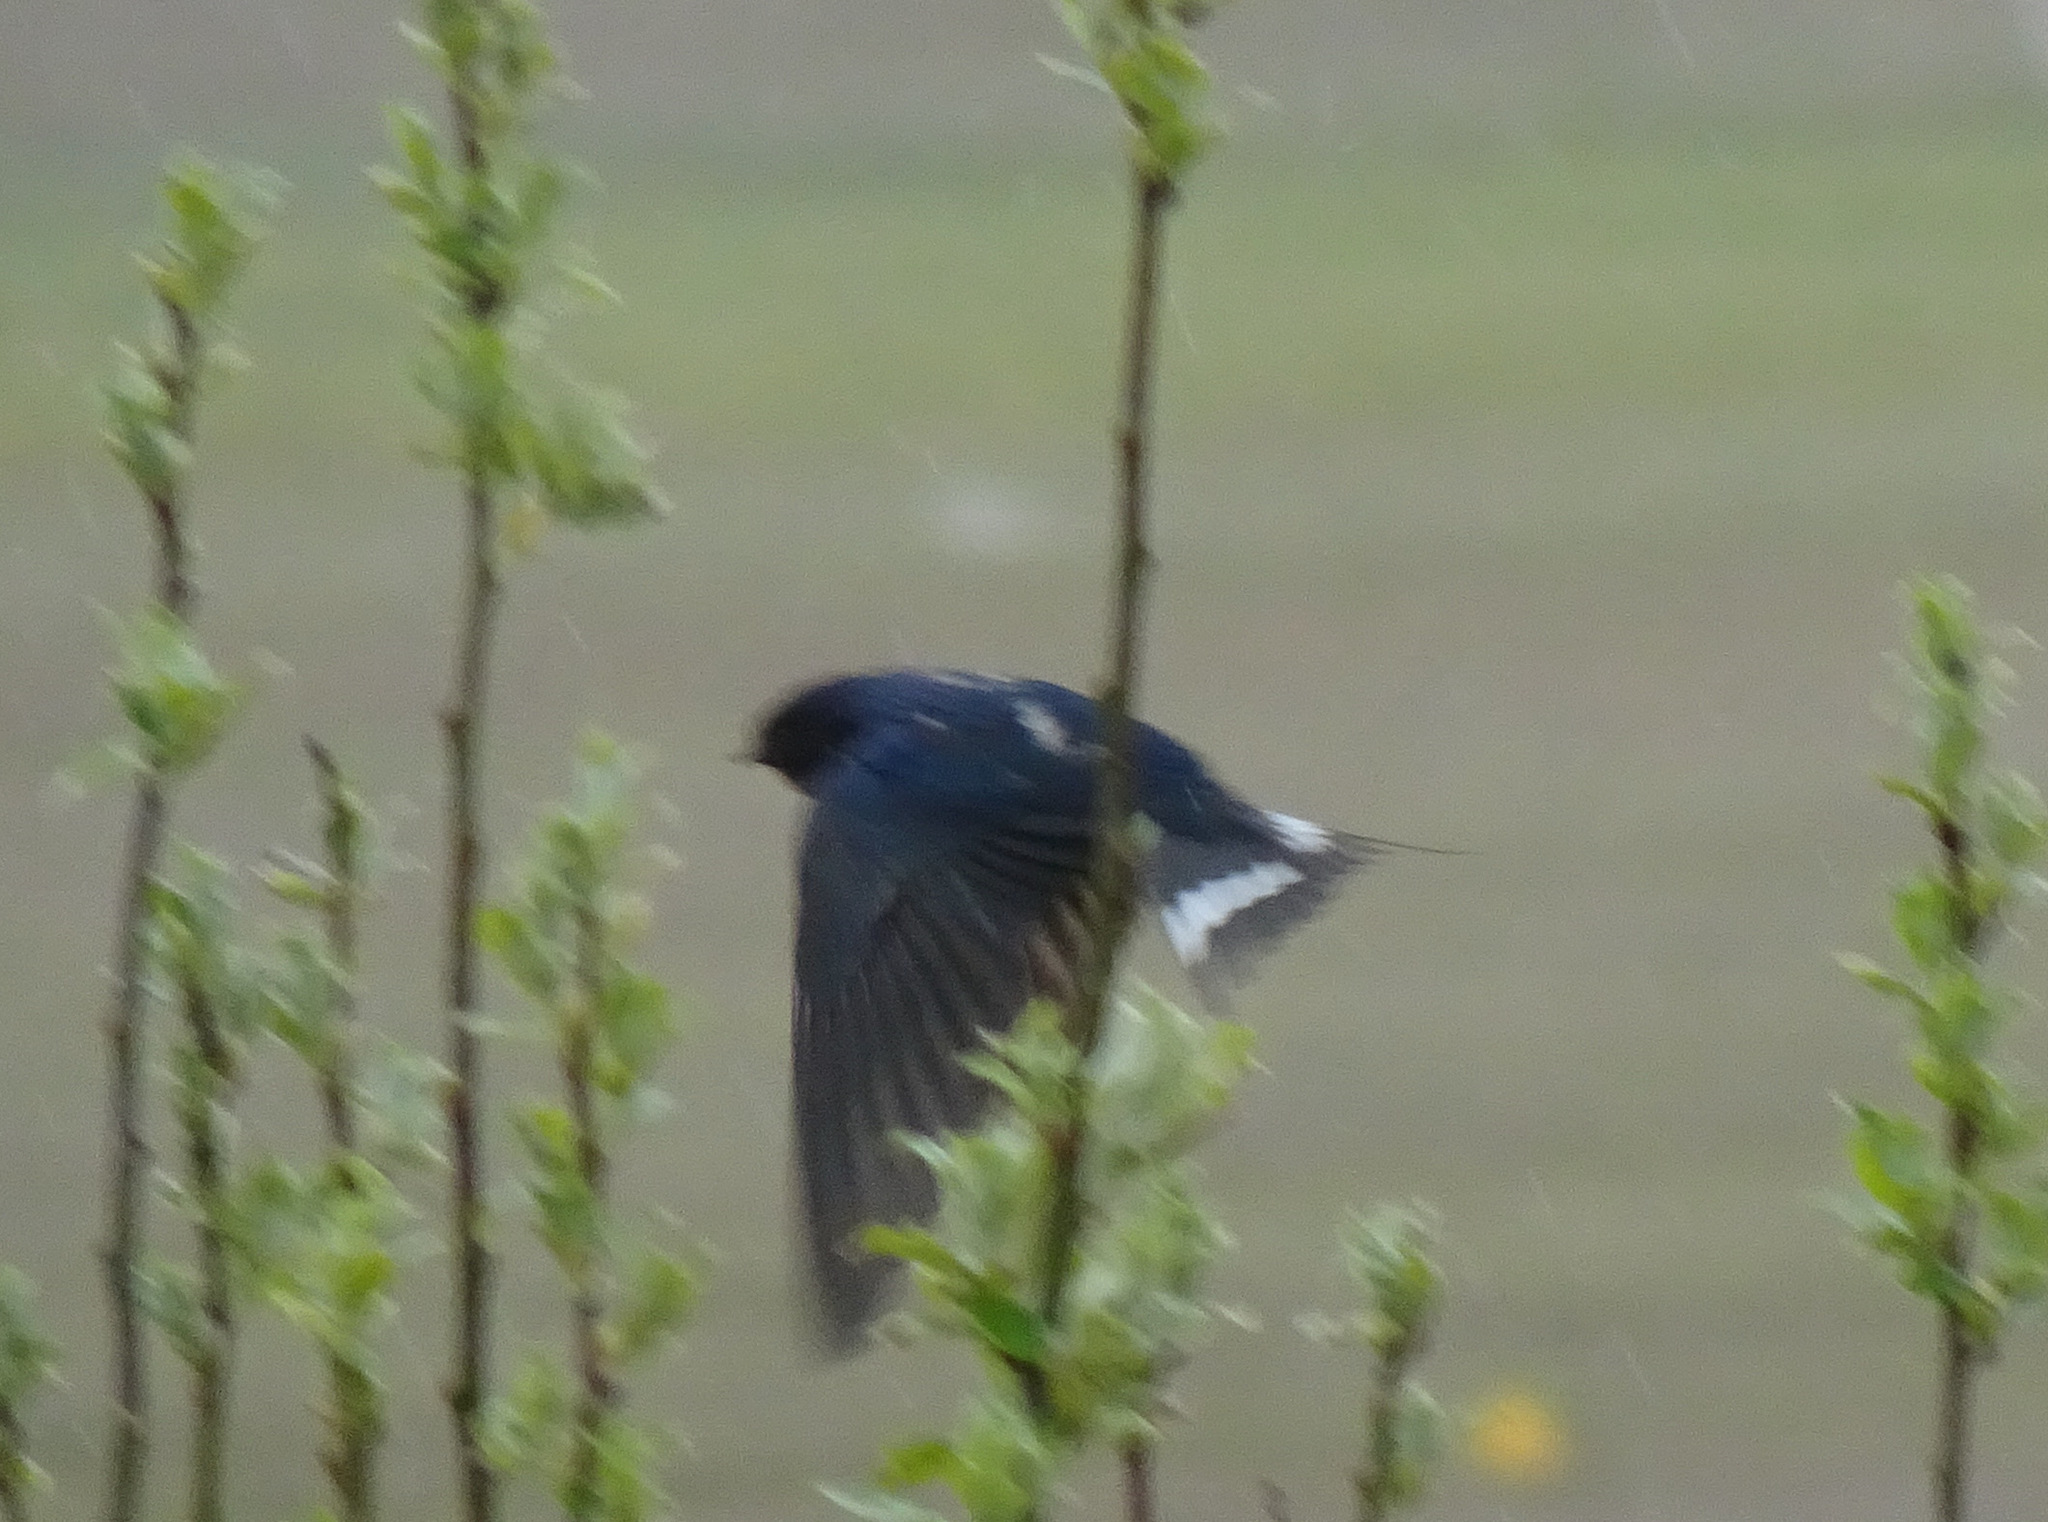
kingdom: Animalia
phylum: Chordata
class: Aves
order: Passeriformes
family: Hirundinidae
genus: Hirundo
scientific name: Hirundo rustica
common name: Barn swallow
